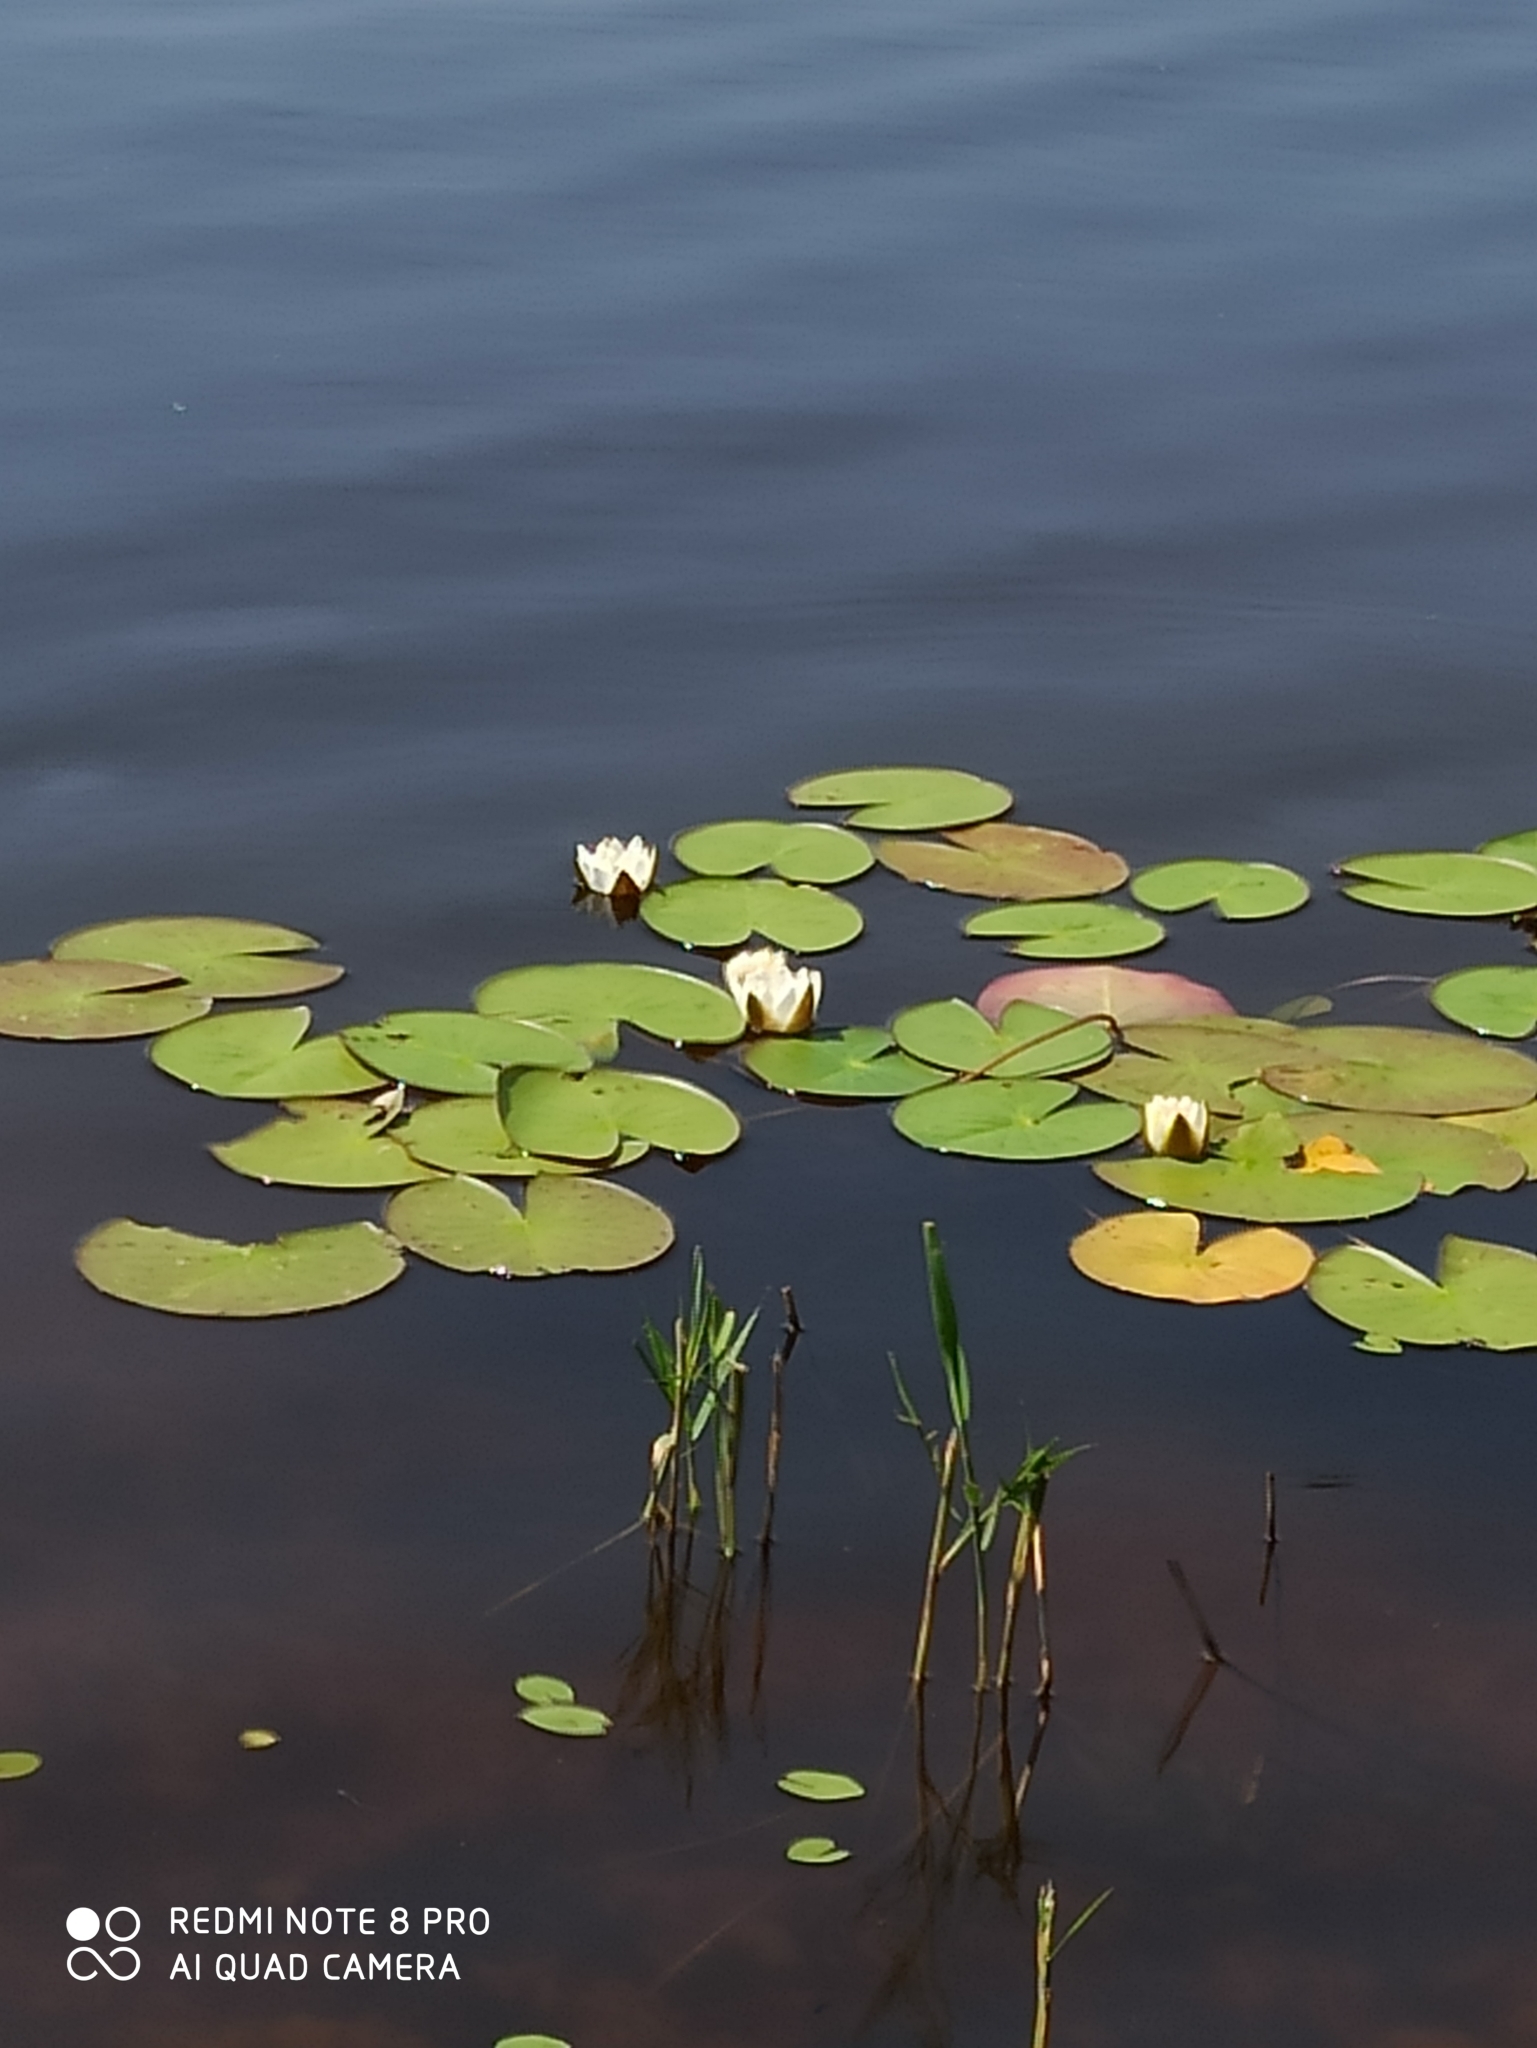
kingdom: Plantae
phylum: Tracheophyta
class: Magnoliopsida
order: Nymphaeales
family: Nymphaeaceae
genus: Nymphaea
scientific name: Nymphaea candida
